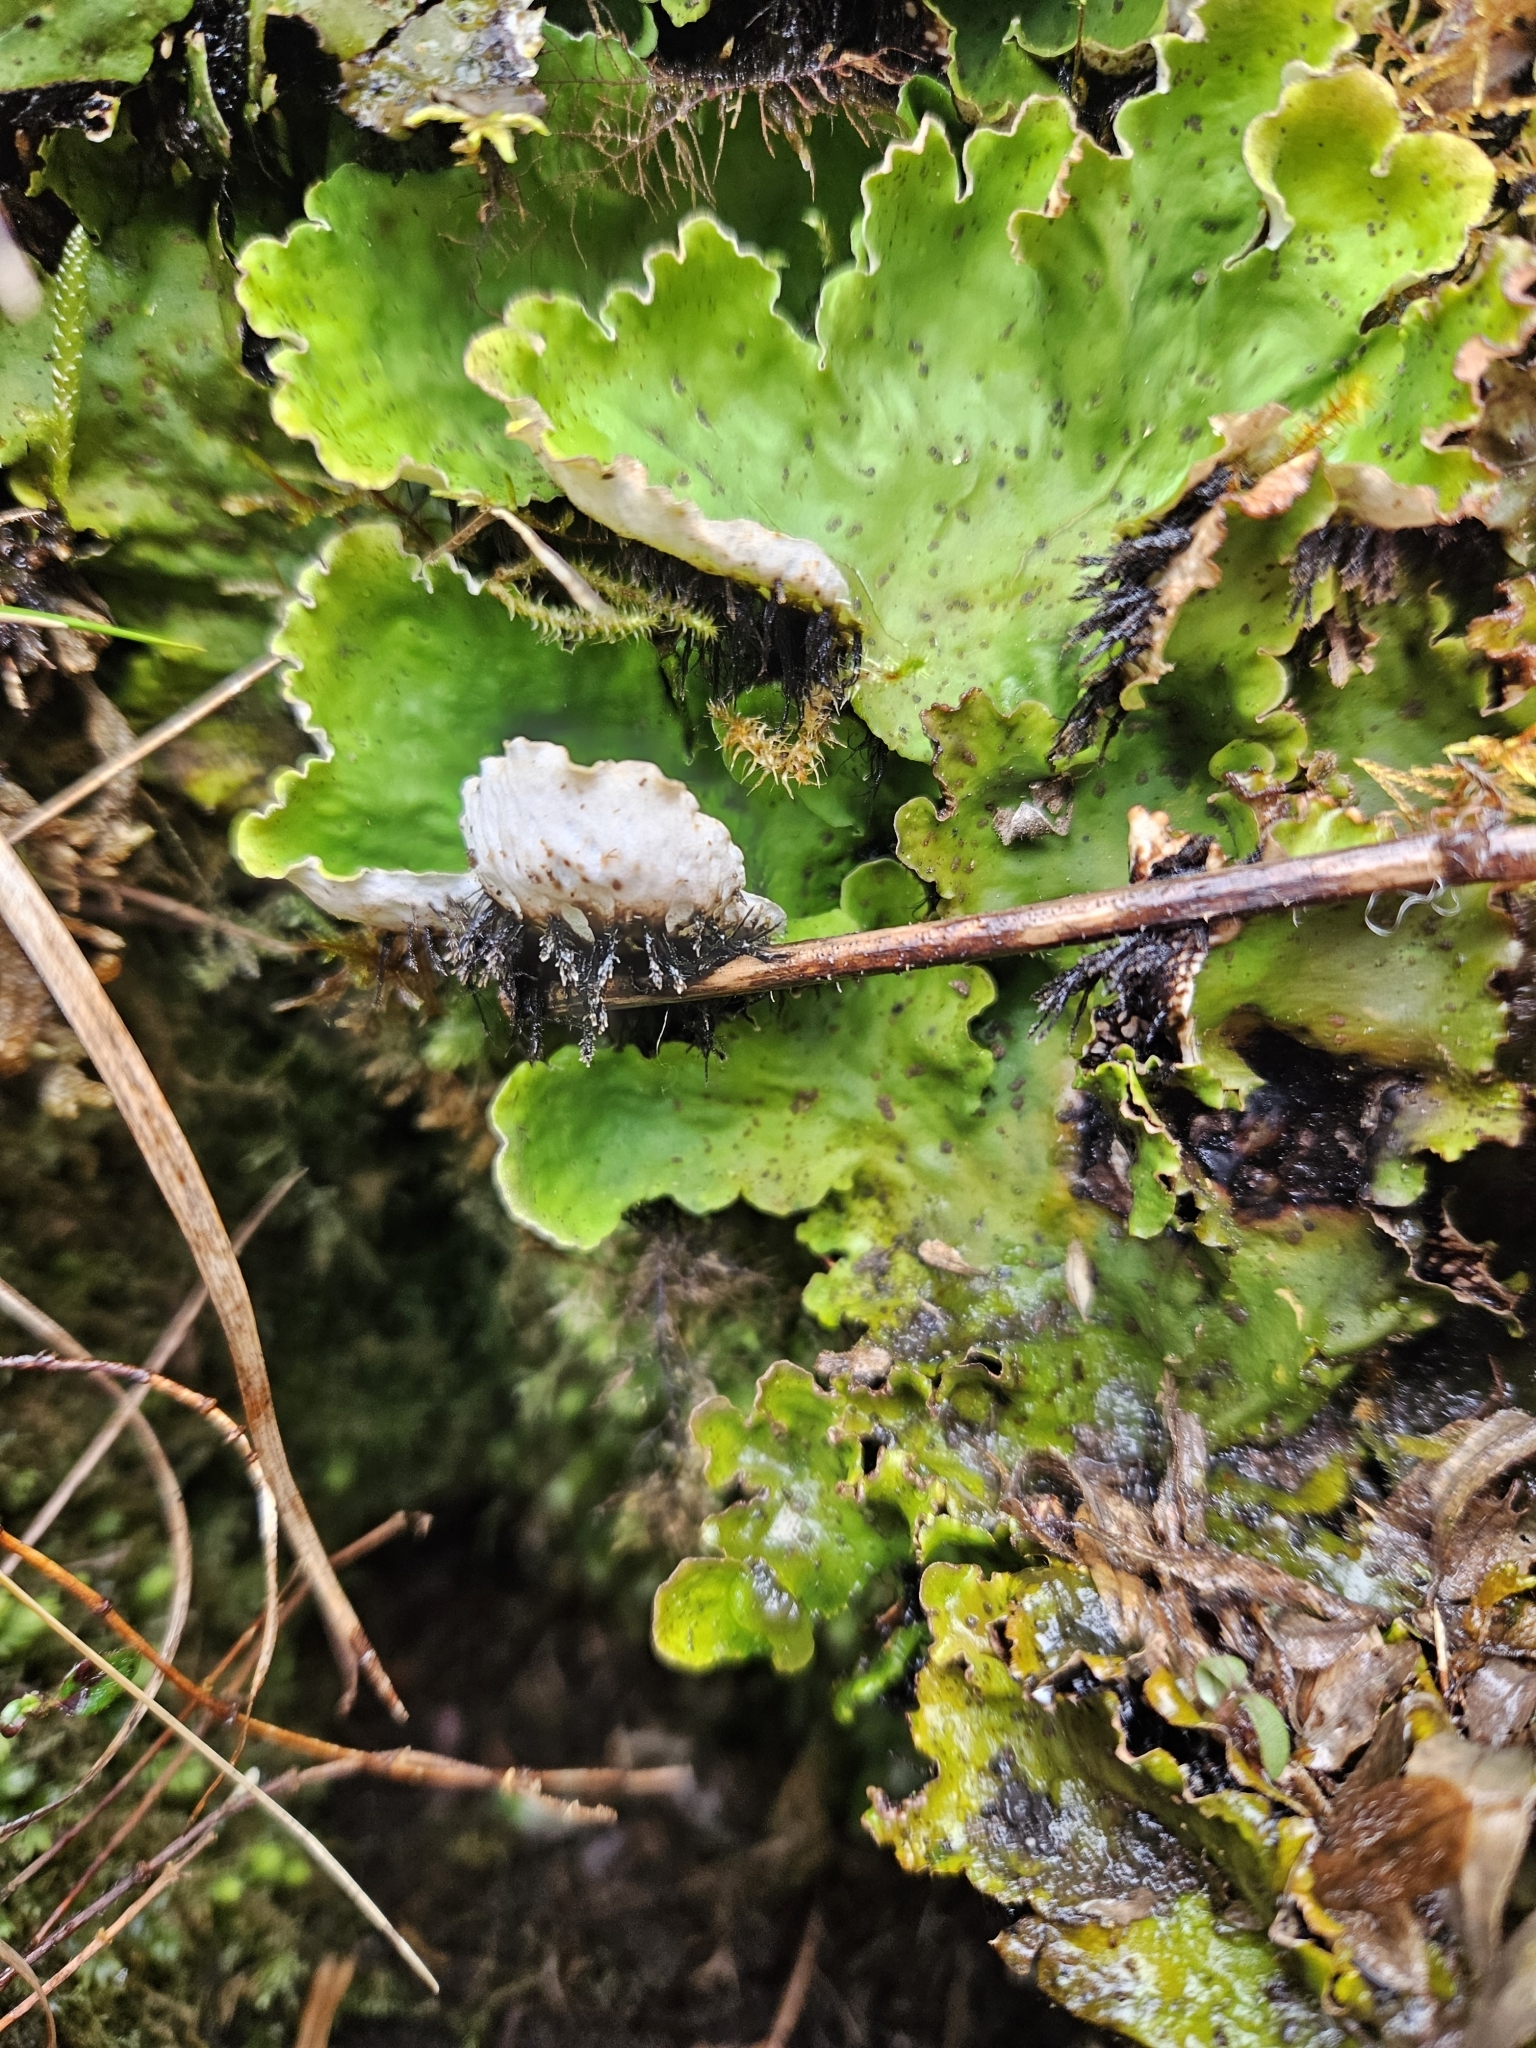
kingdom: Fungi
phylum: Ascomycota
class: Lecanoromycetes
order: Peltigerales
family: Peltigeraceae
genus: Peltigera
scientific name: Peltigera leucophlebia
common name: Ruffled freckle pelt lichen
